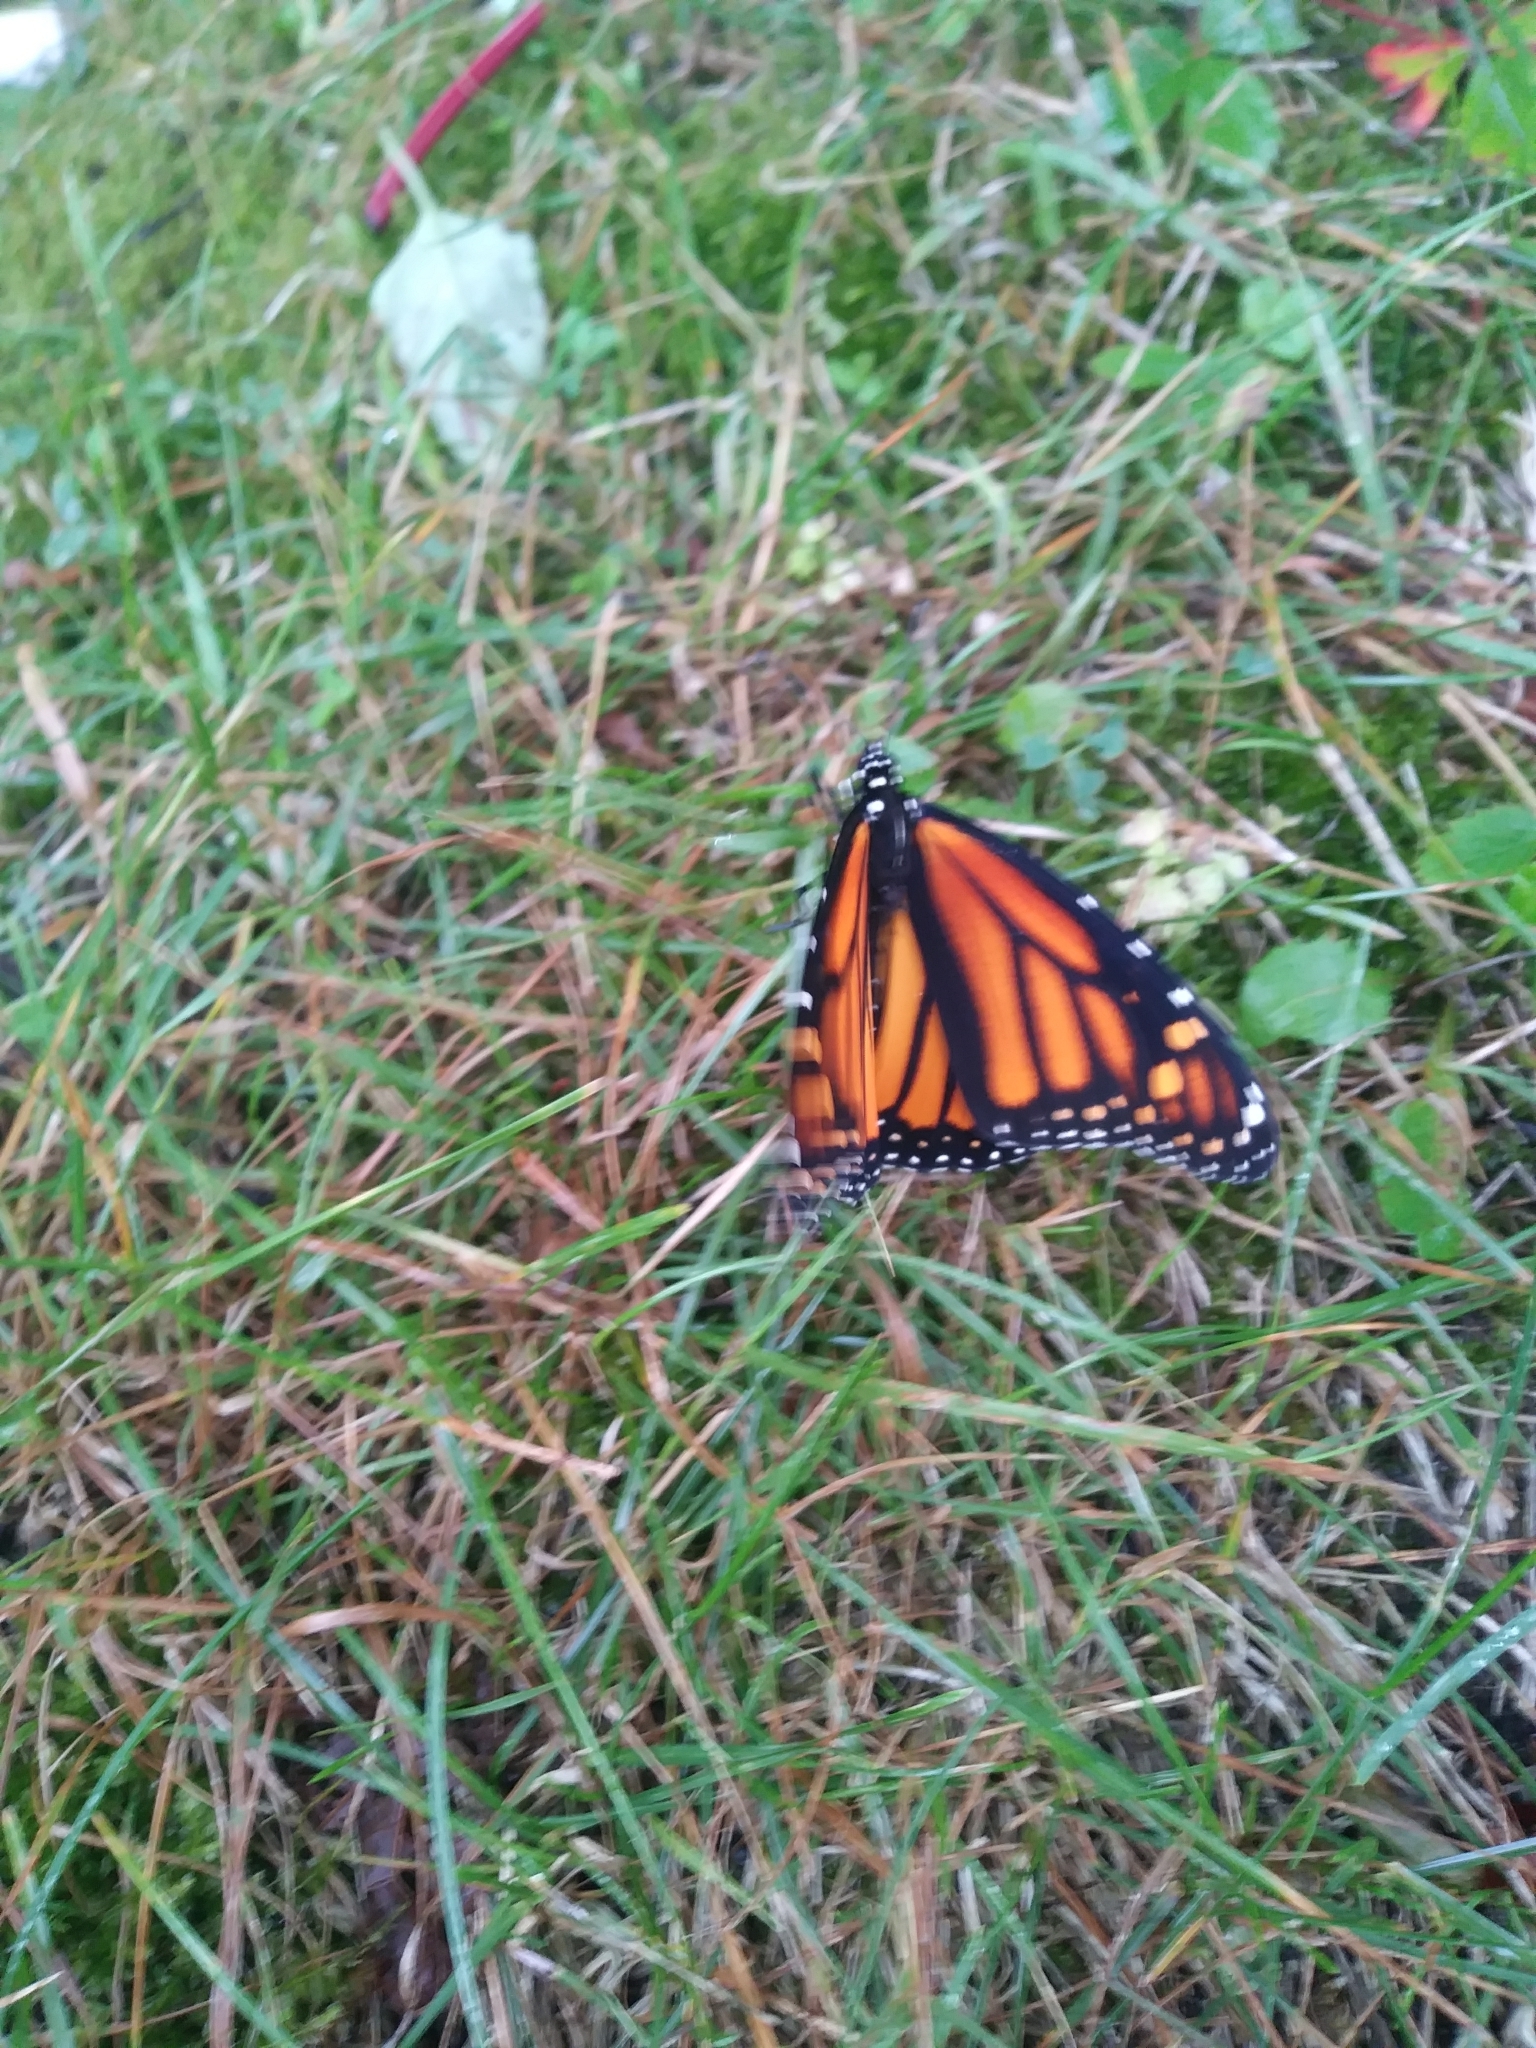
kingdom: Animalia
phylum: Arthropoda
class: Insecta
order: Lepidoptera
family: Nymphalidae
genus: Danaus
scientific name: Danaus plexippus
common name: Monarch
